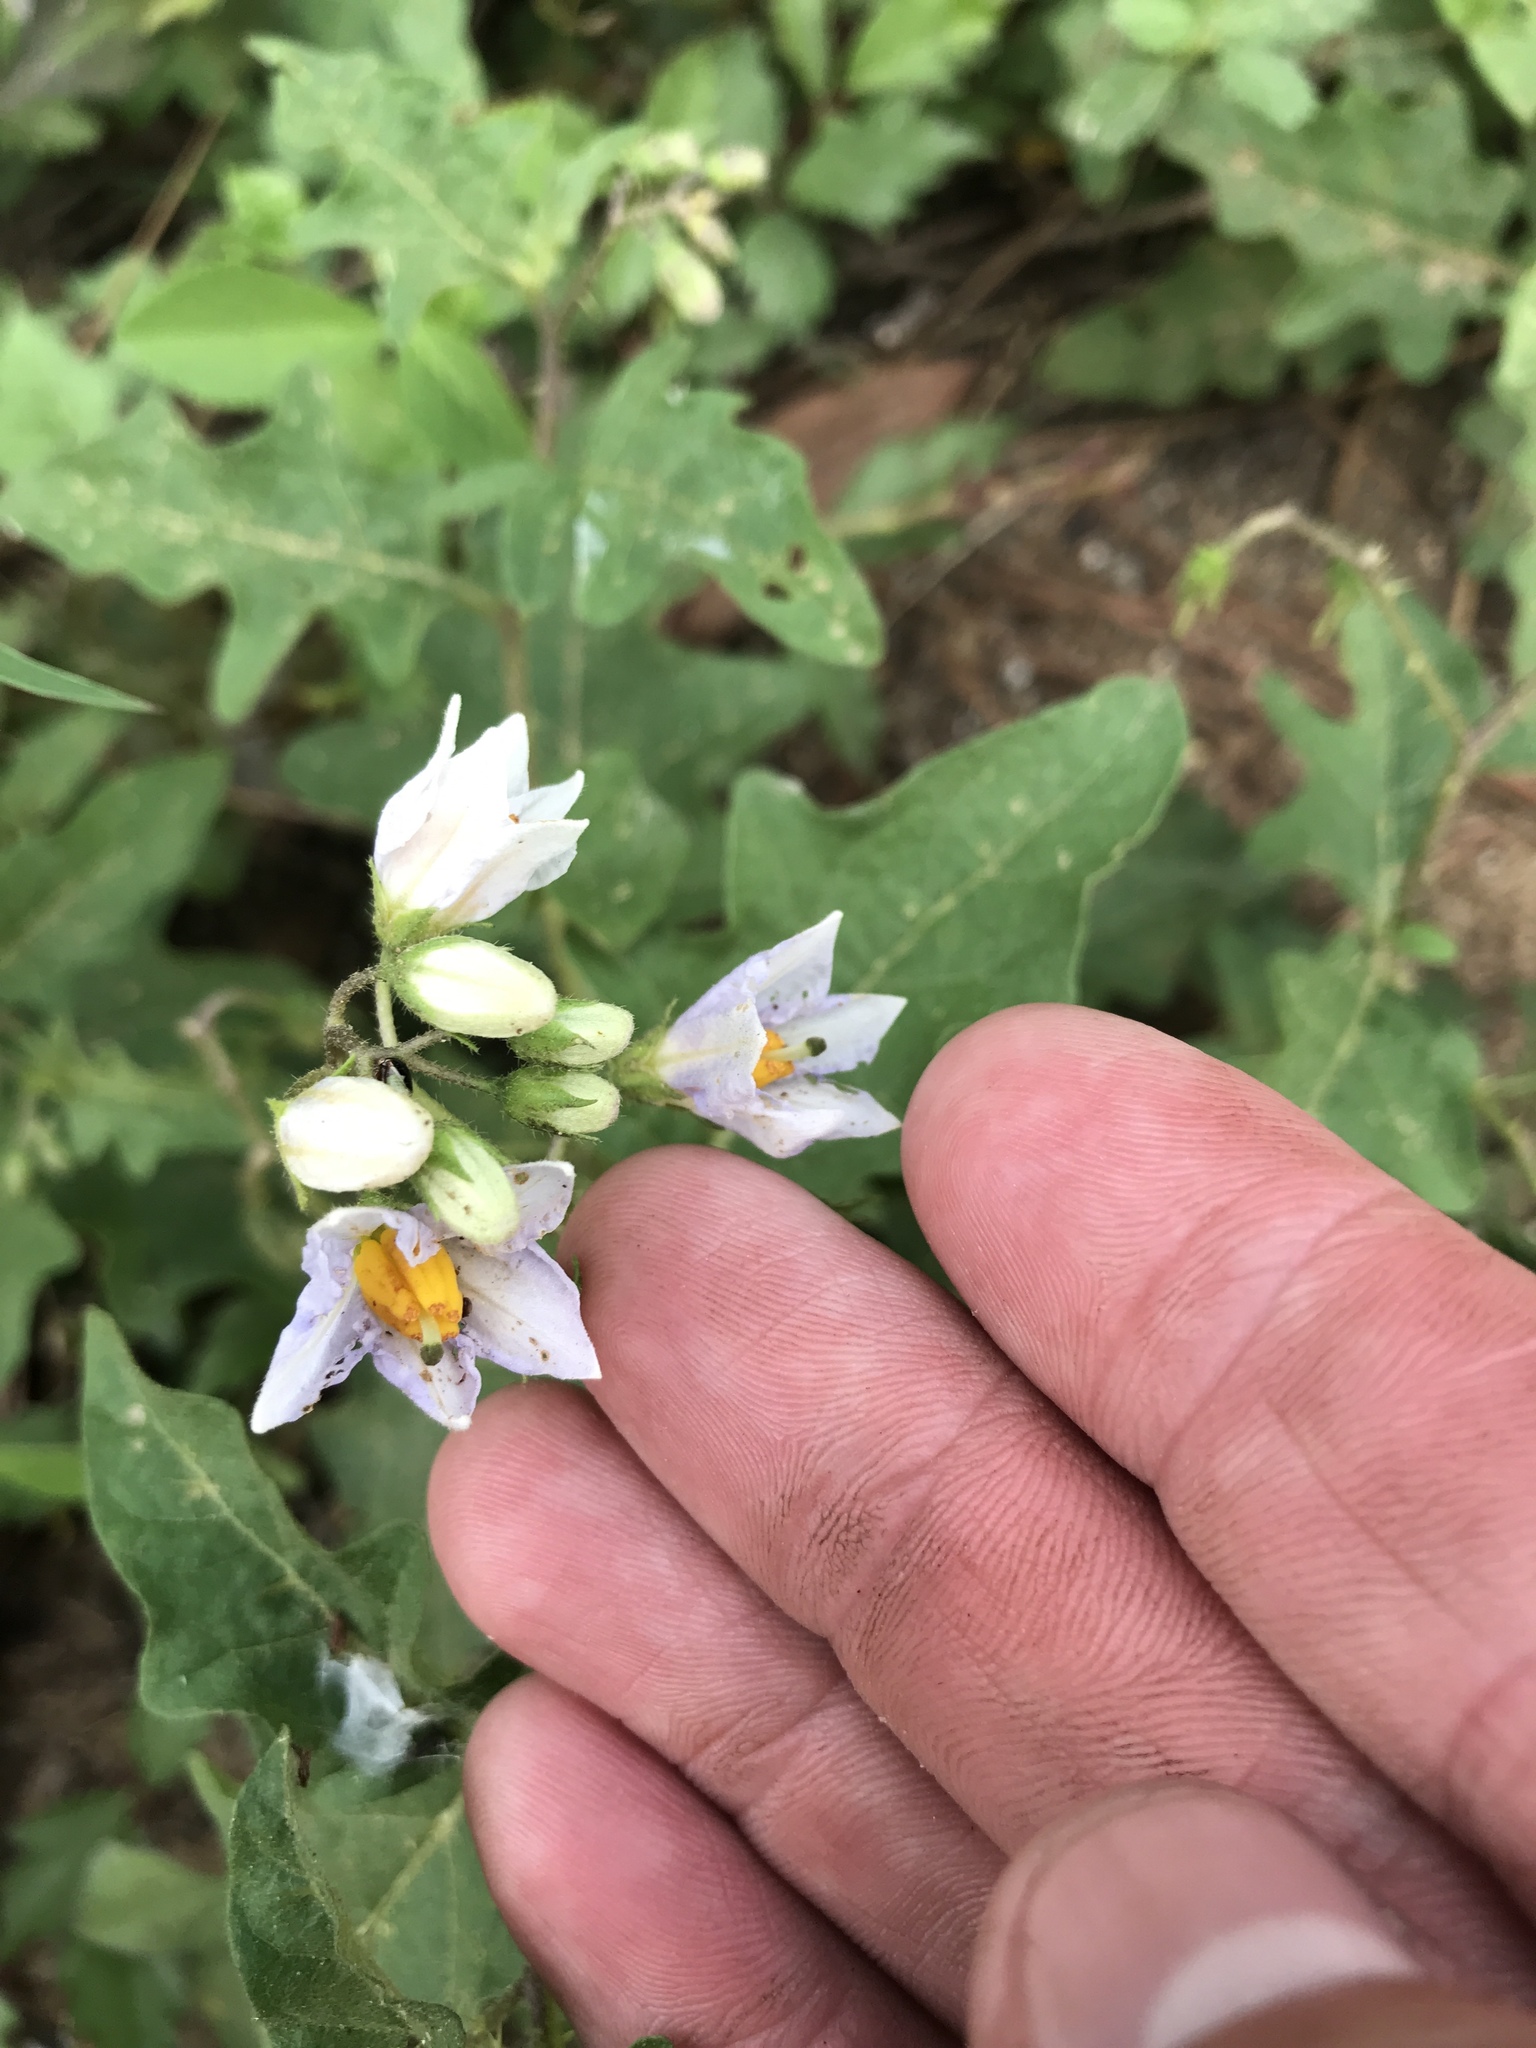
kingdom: Plantae
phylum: Tracheophyta
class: Magnoliopsida
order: Solanales
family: Solanaceae
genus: Solanum
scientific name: Solanum carolinense
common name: Horse-nettle
